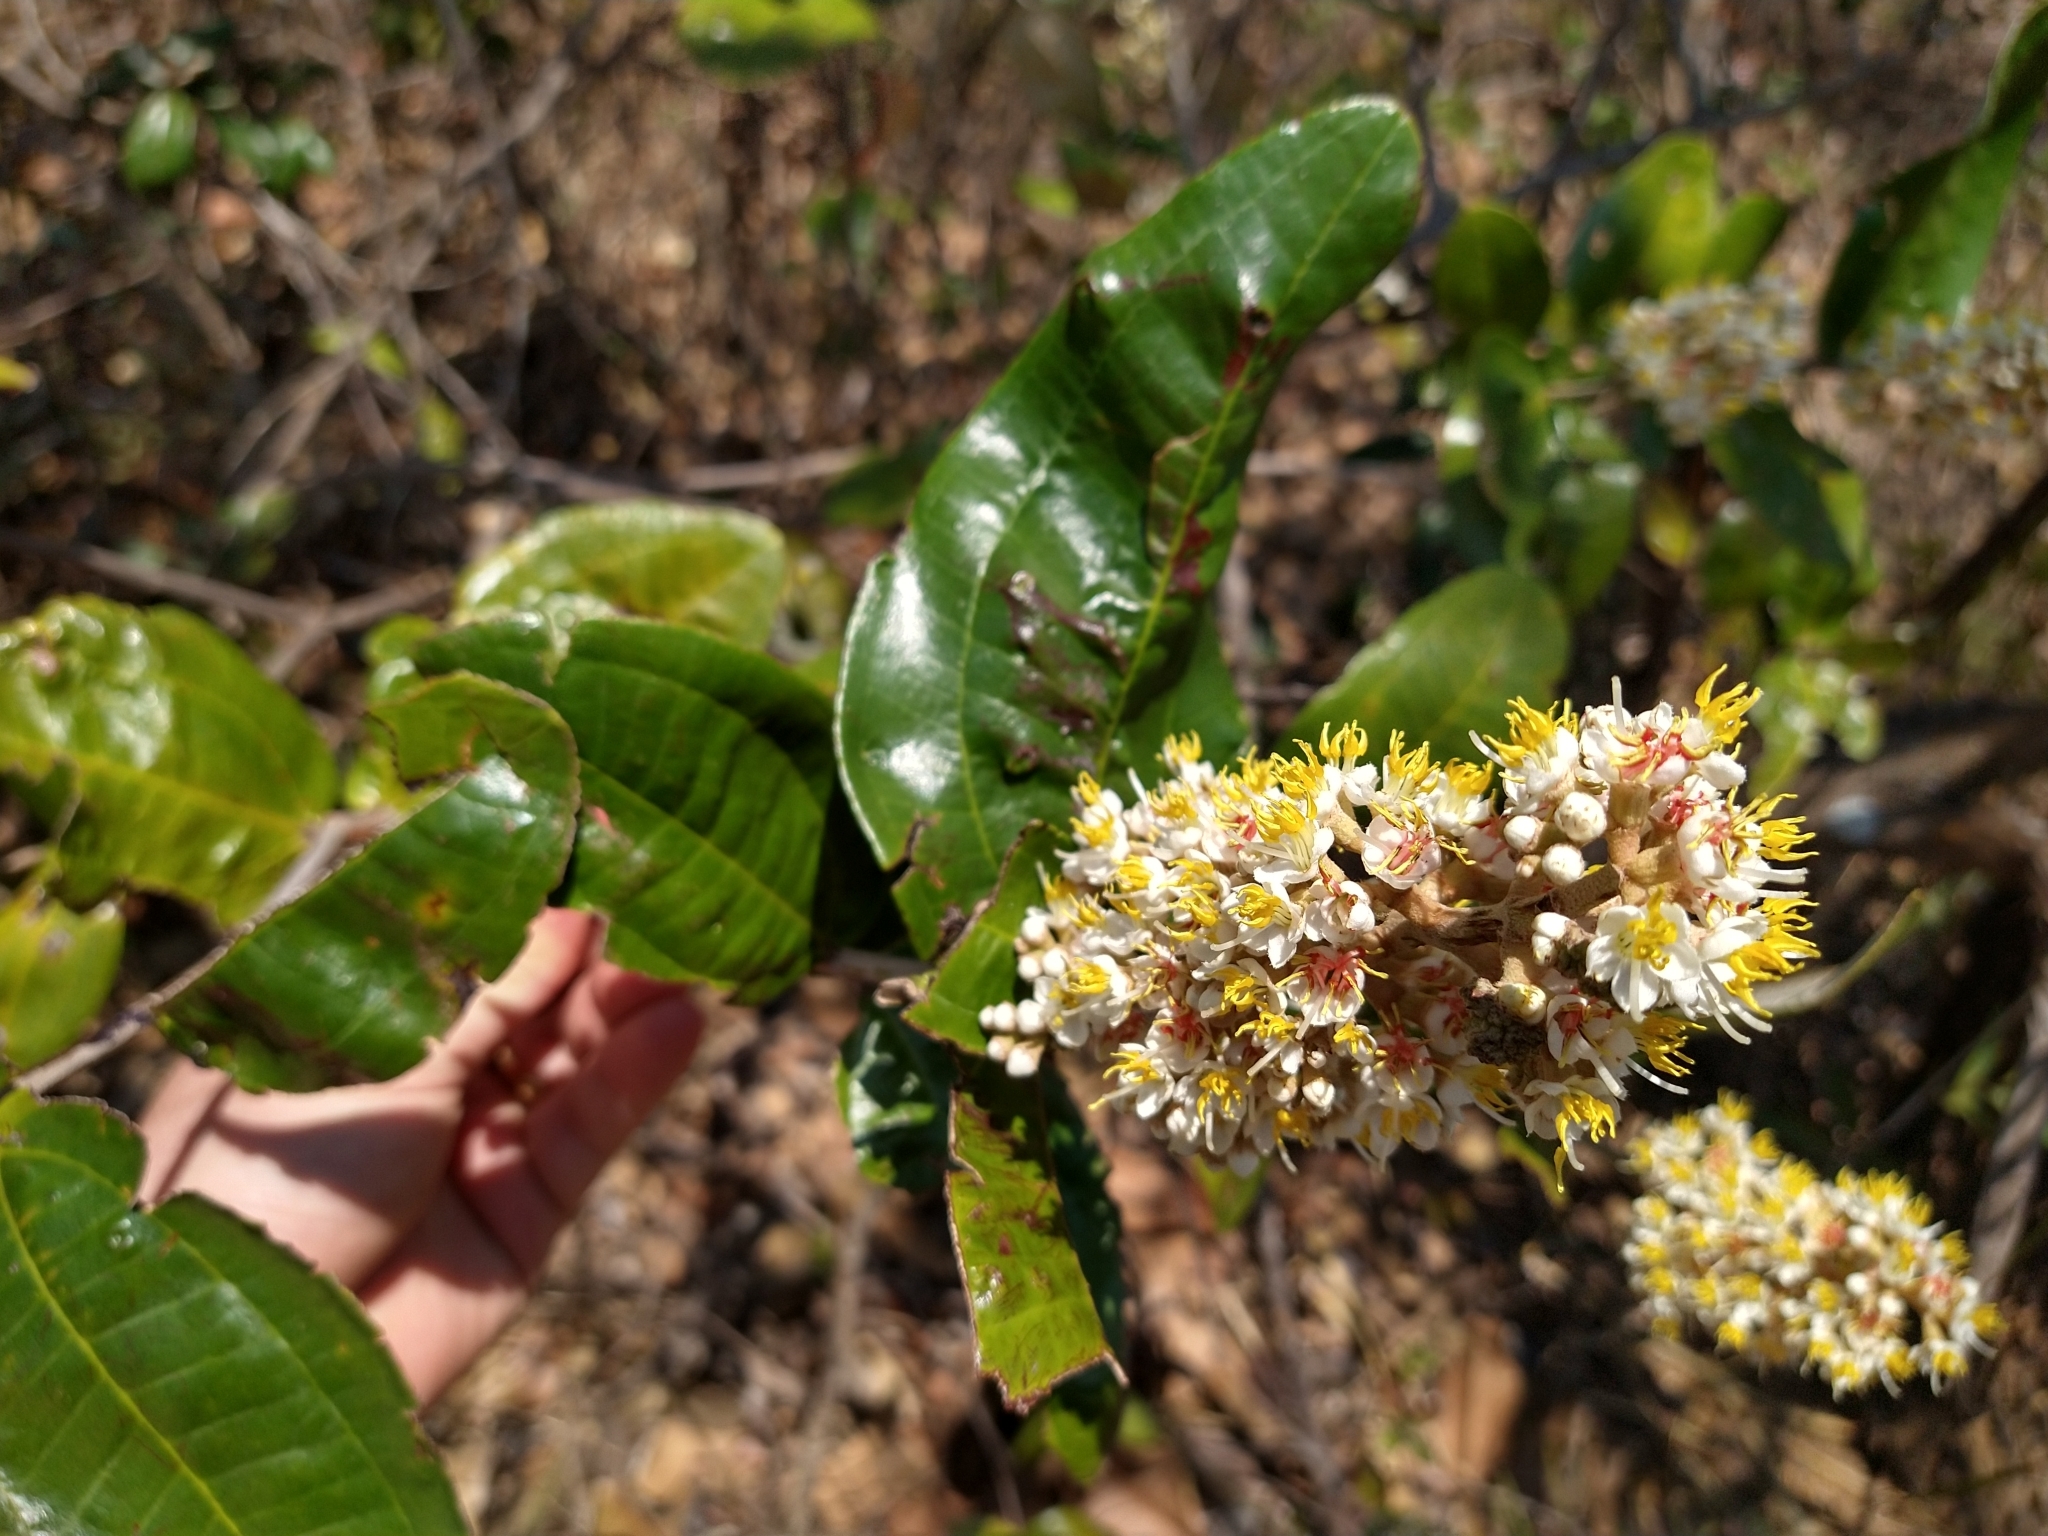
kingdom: Plantae
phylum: Tracheophyta
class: Magnoliopsida
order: Myrtales
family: Melastomataceae
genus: Miconia
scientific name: Miconia fallax
